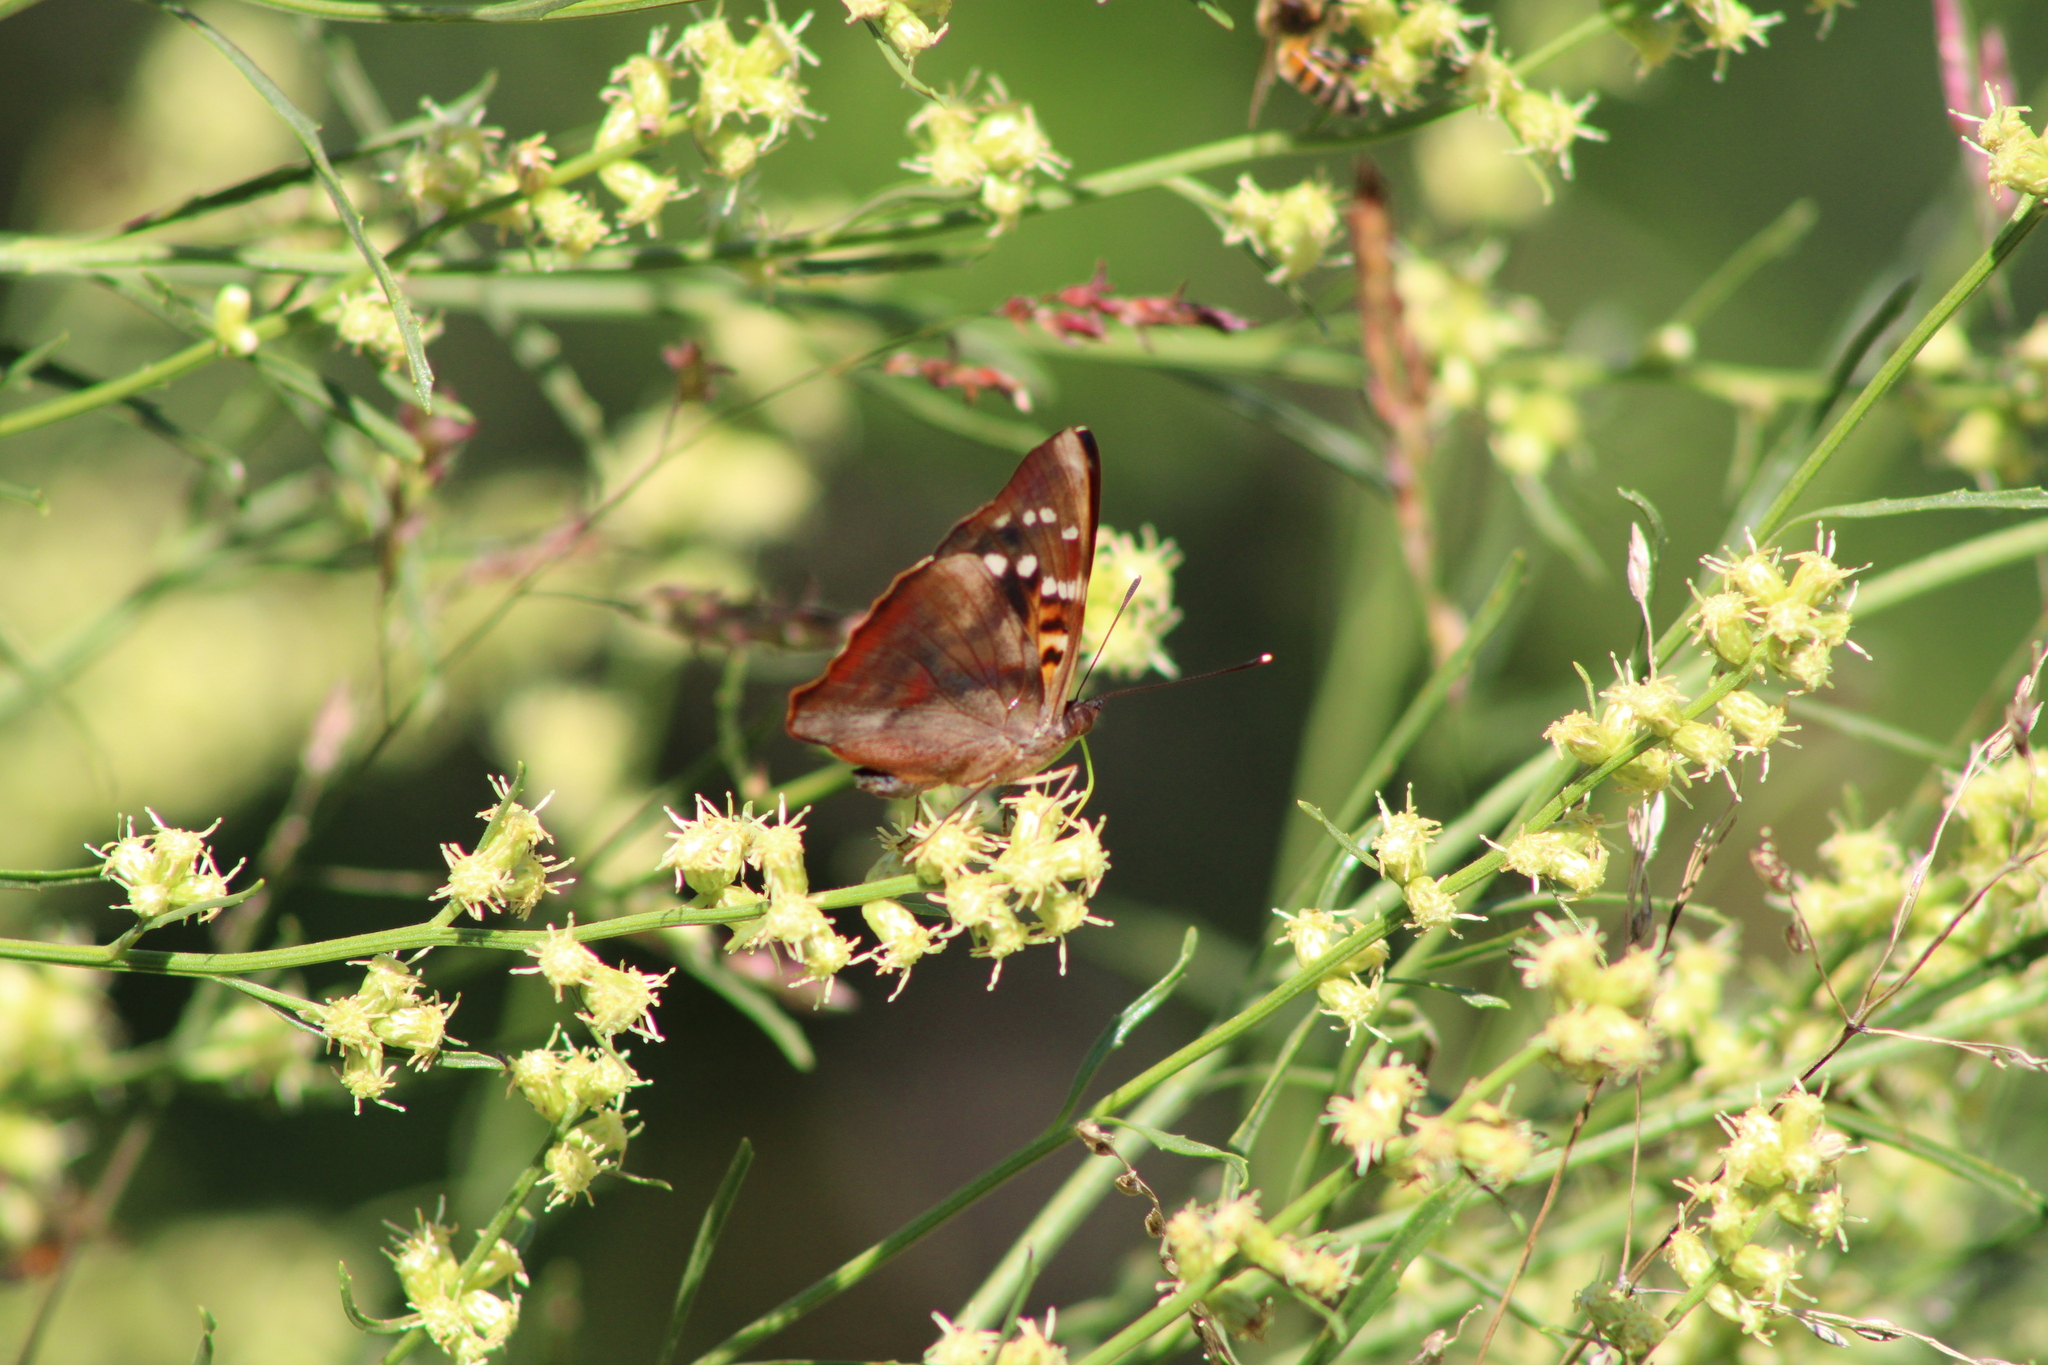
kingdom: Animalia
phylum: Arthropoda
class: Insecta
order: Lepidoptera
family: Nymphalidae
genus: Doxocopa
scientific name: Doxocopa kallina
